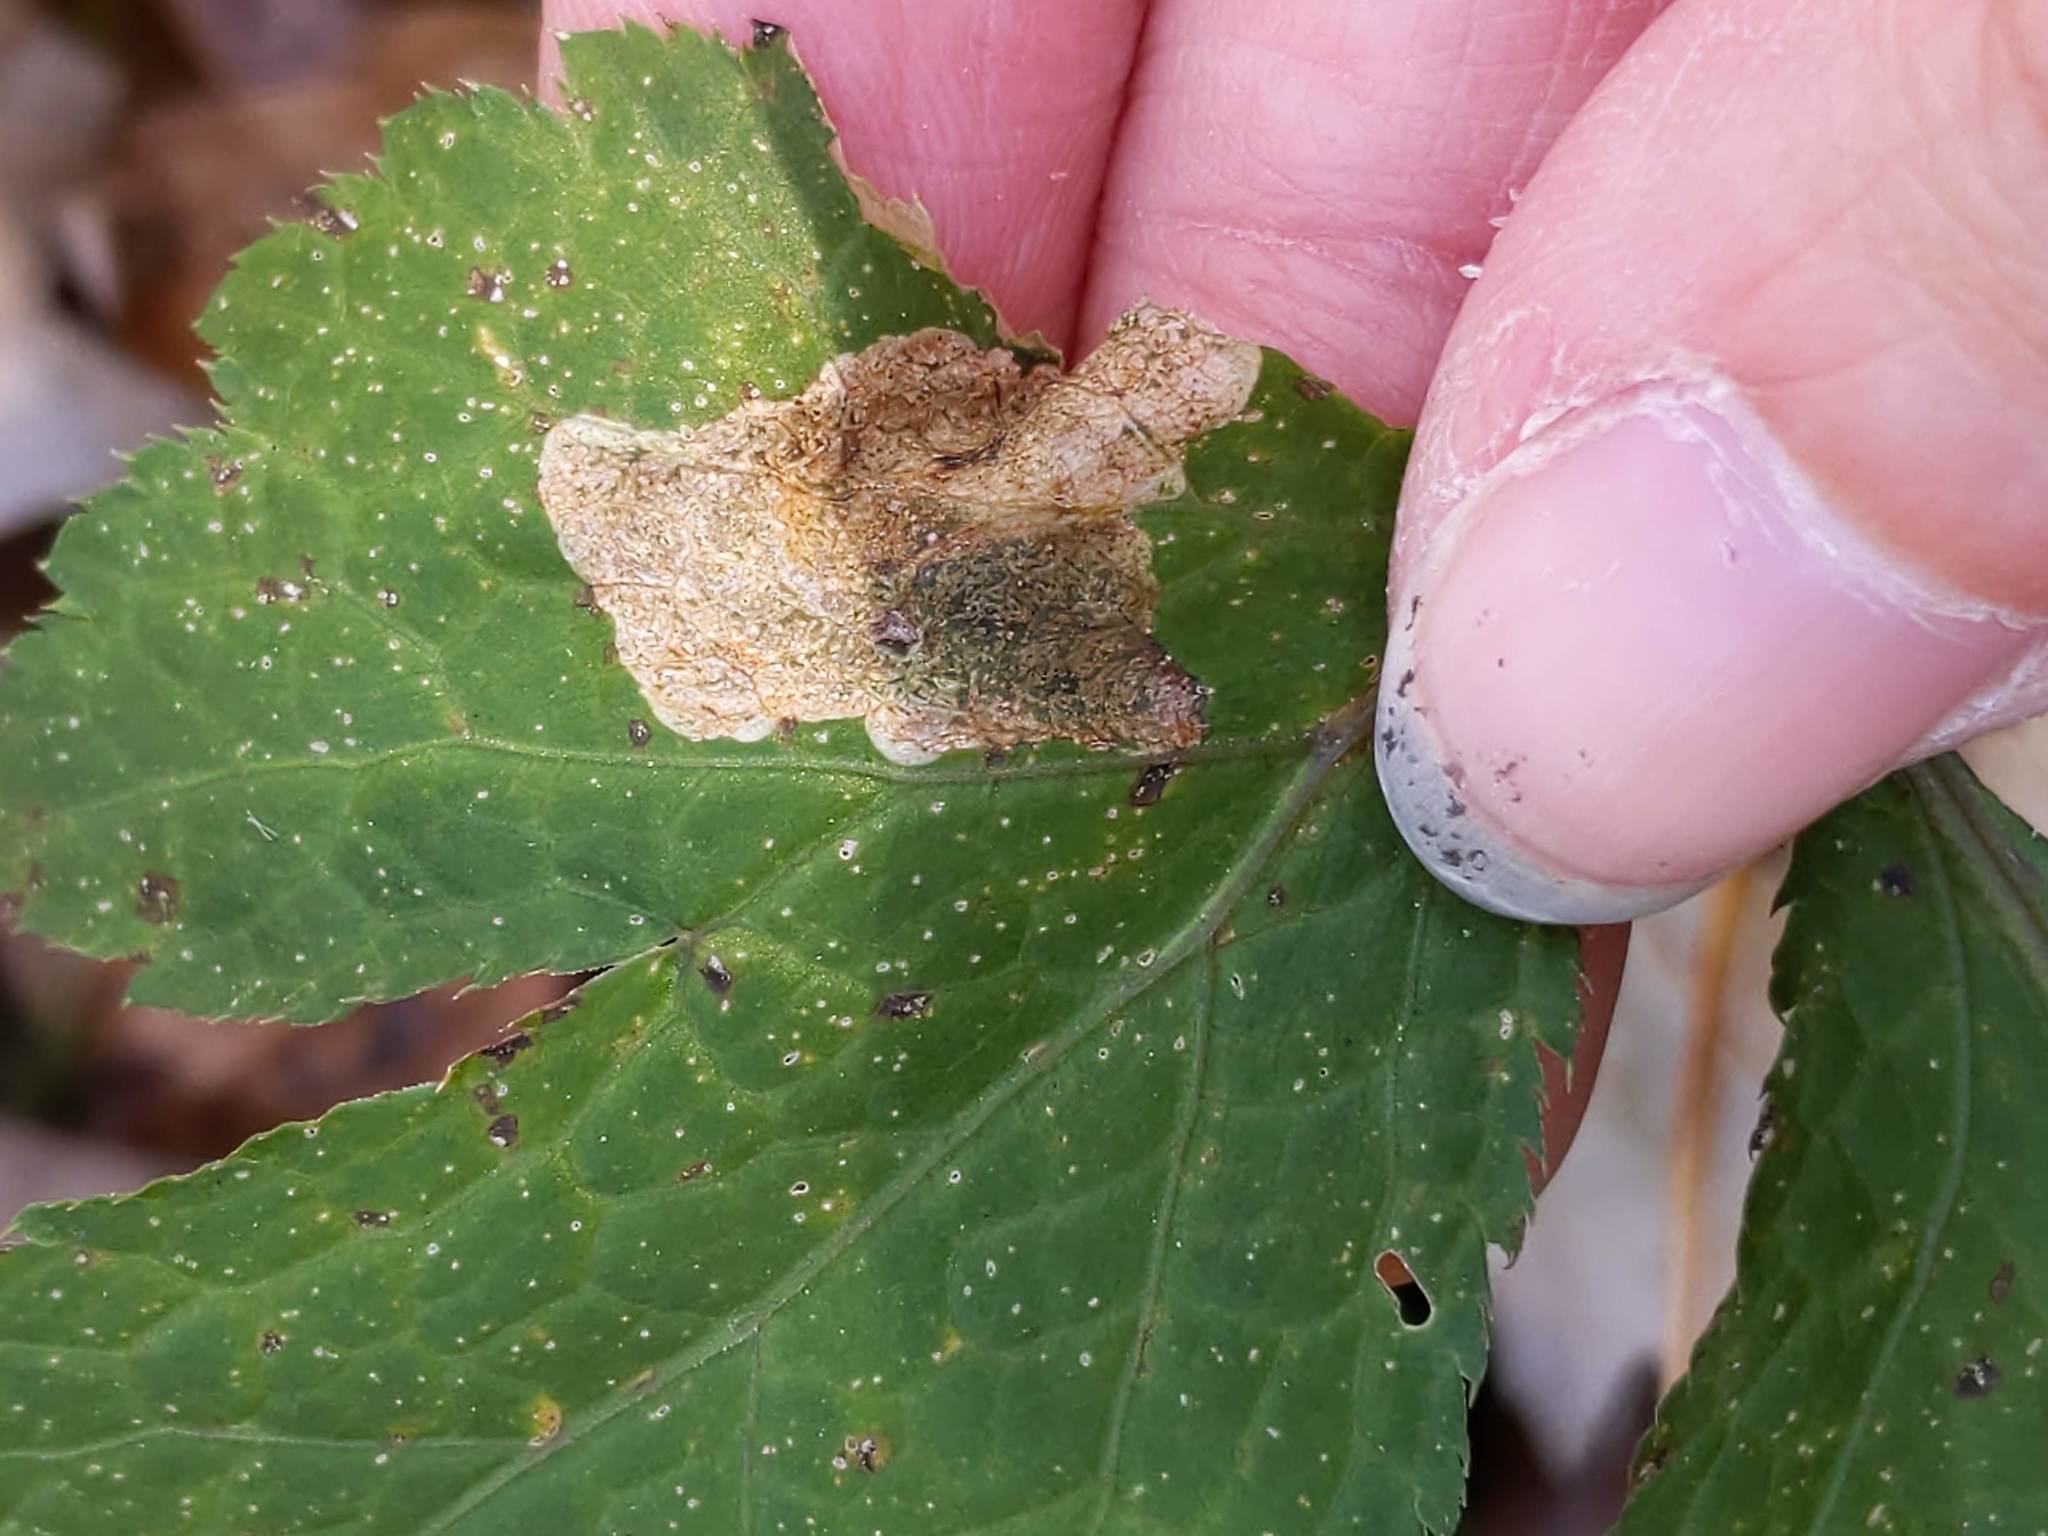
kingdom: Animalia
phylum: Arthropoda
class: Insecta
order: Hymenoptera
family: Tenthredinidae
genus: Metallus
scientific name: Metallus lanceolatus
